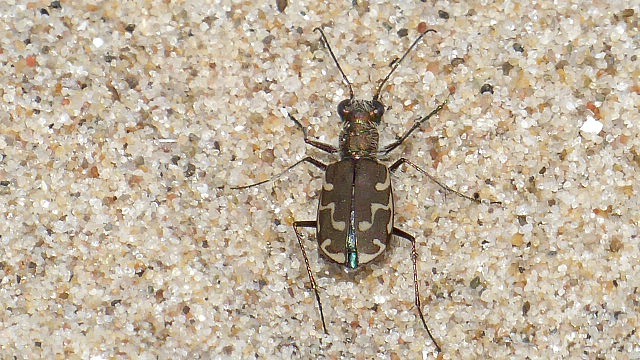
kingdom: Animalia
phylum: Arthropoda
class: Insecta
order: Coleoptera
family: Carabidae
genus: Cicindela
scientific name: Cicindela repanda
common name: Bronzed tiger beetle
